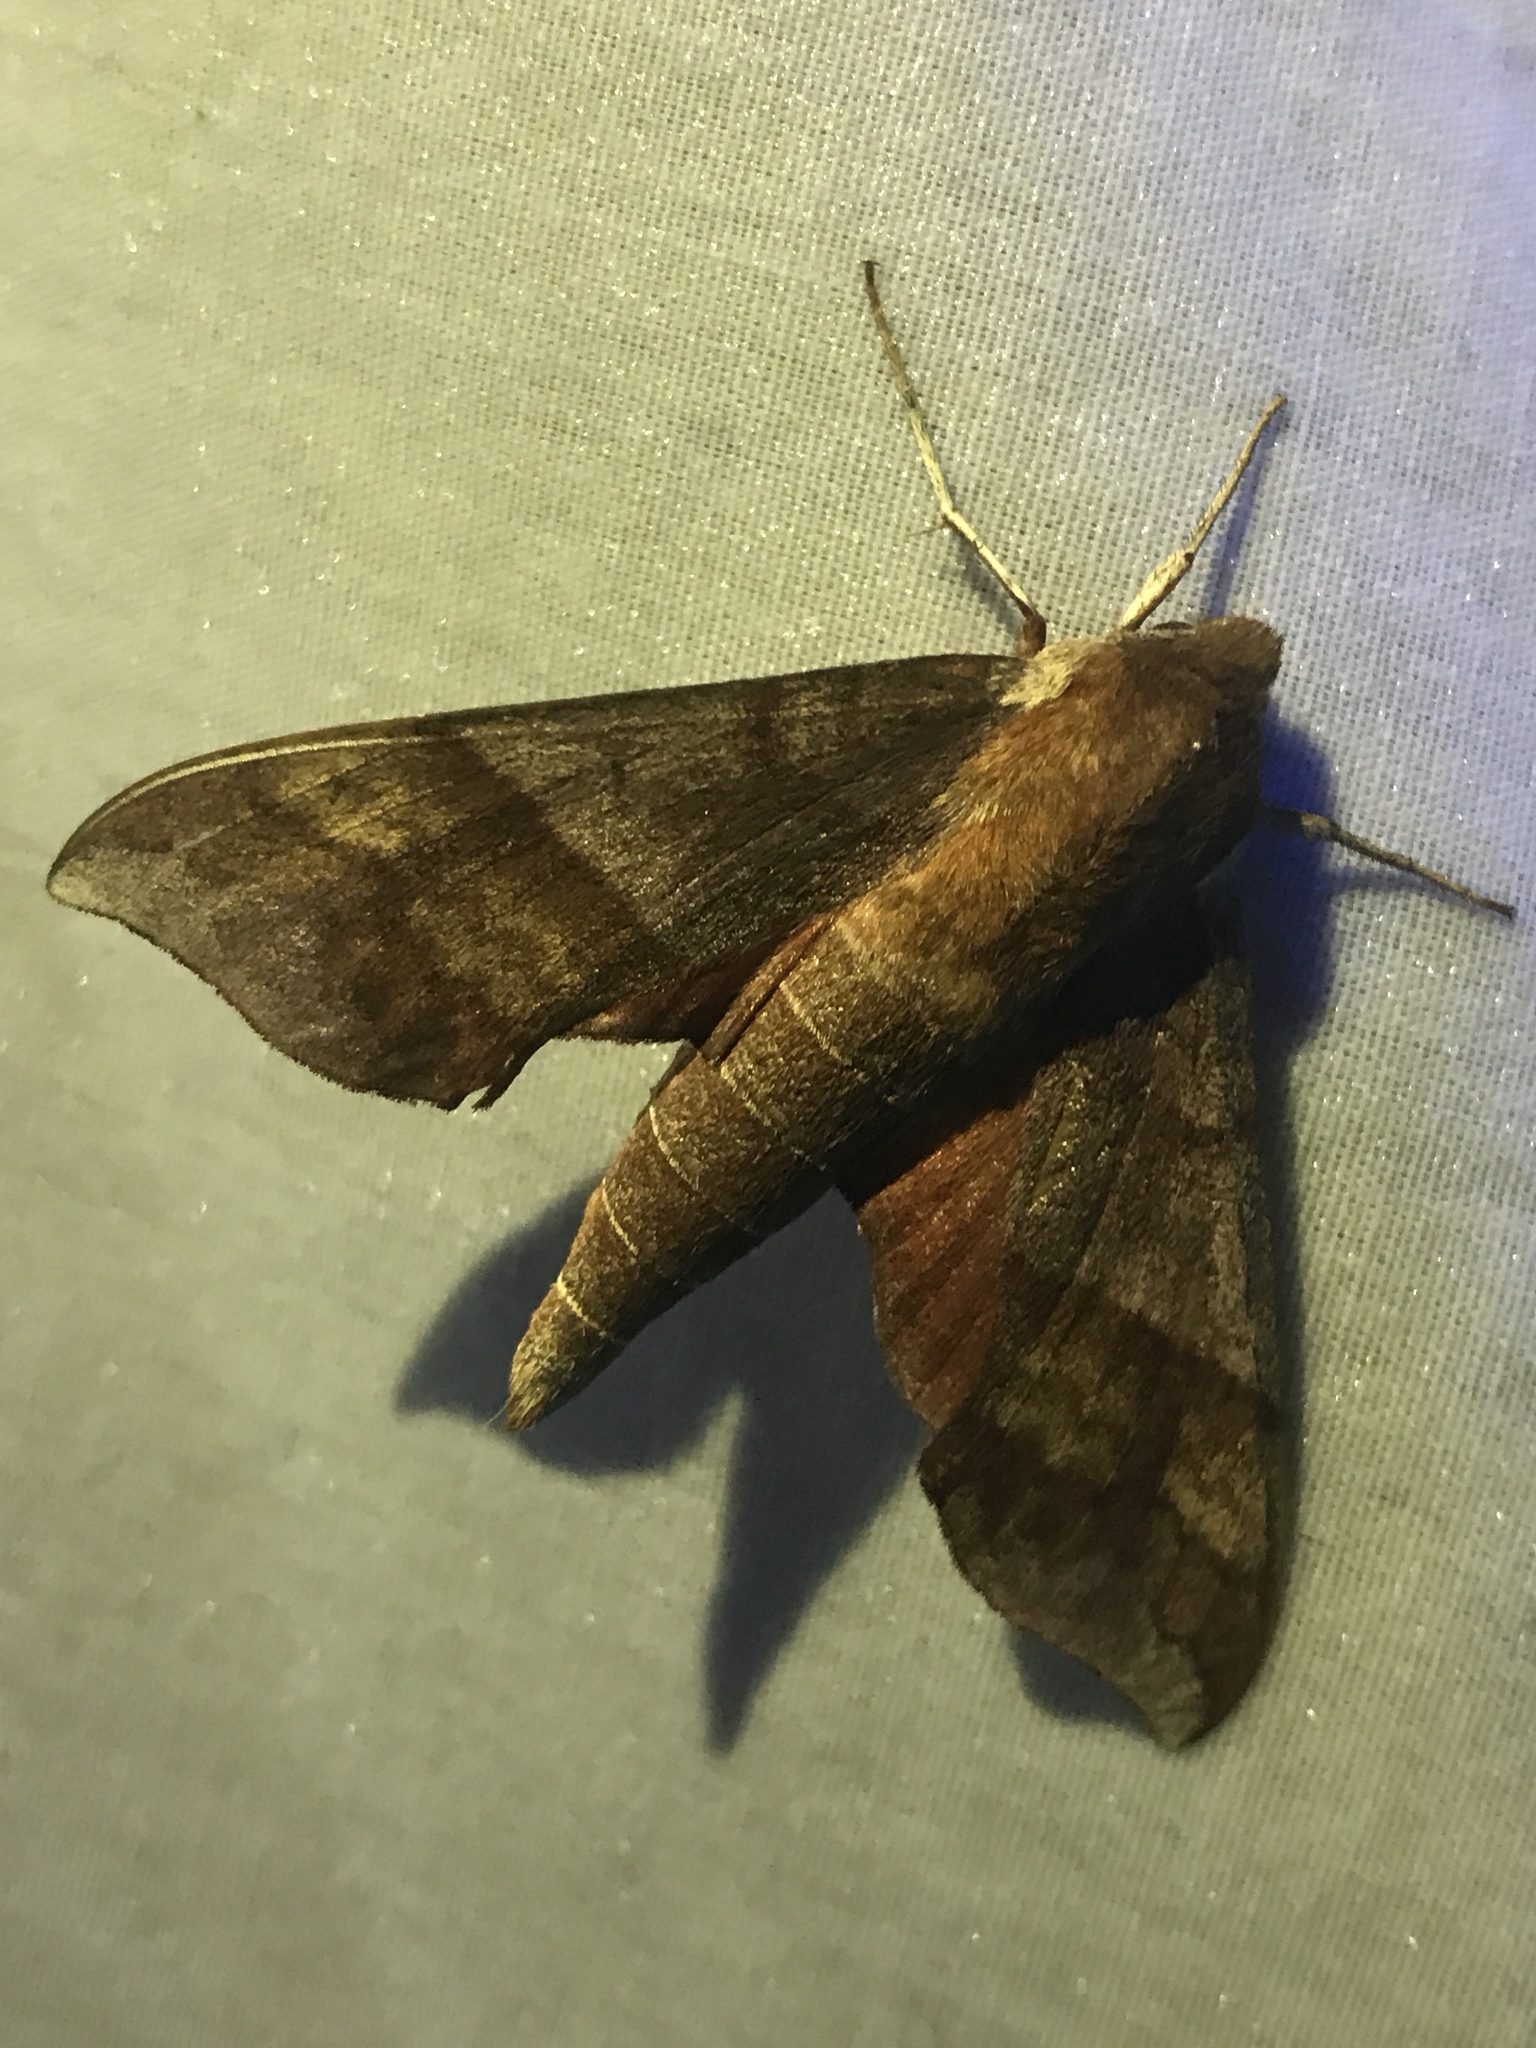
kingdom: Animalia
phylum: Arthropoda
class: Insecta
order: Lepidoptera
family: Sphingidae
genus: Darapsa
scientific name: Darapsa choerilus
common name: Azalea sphinx
